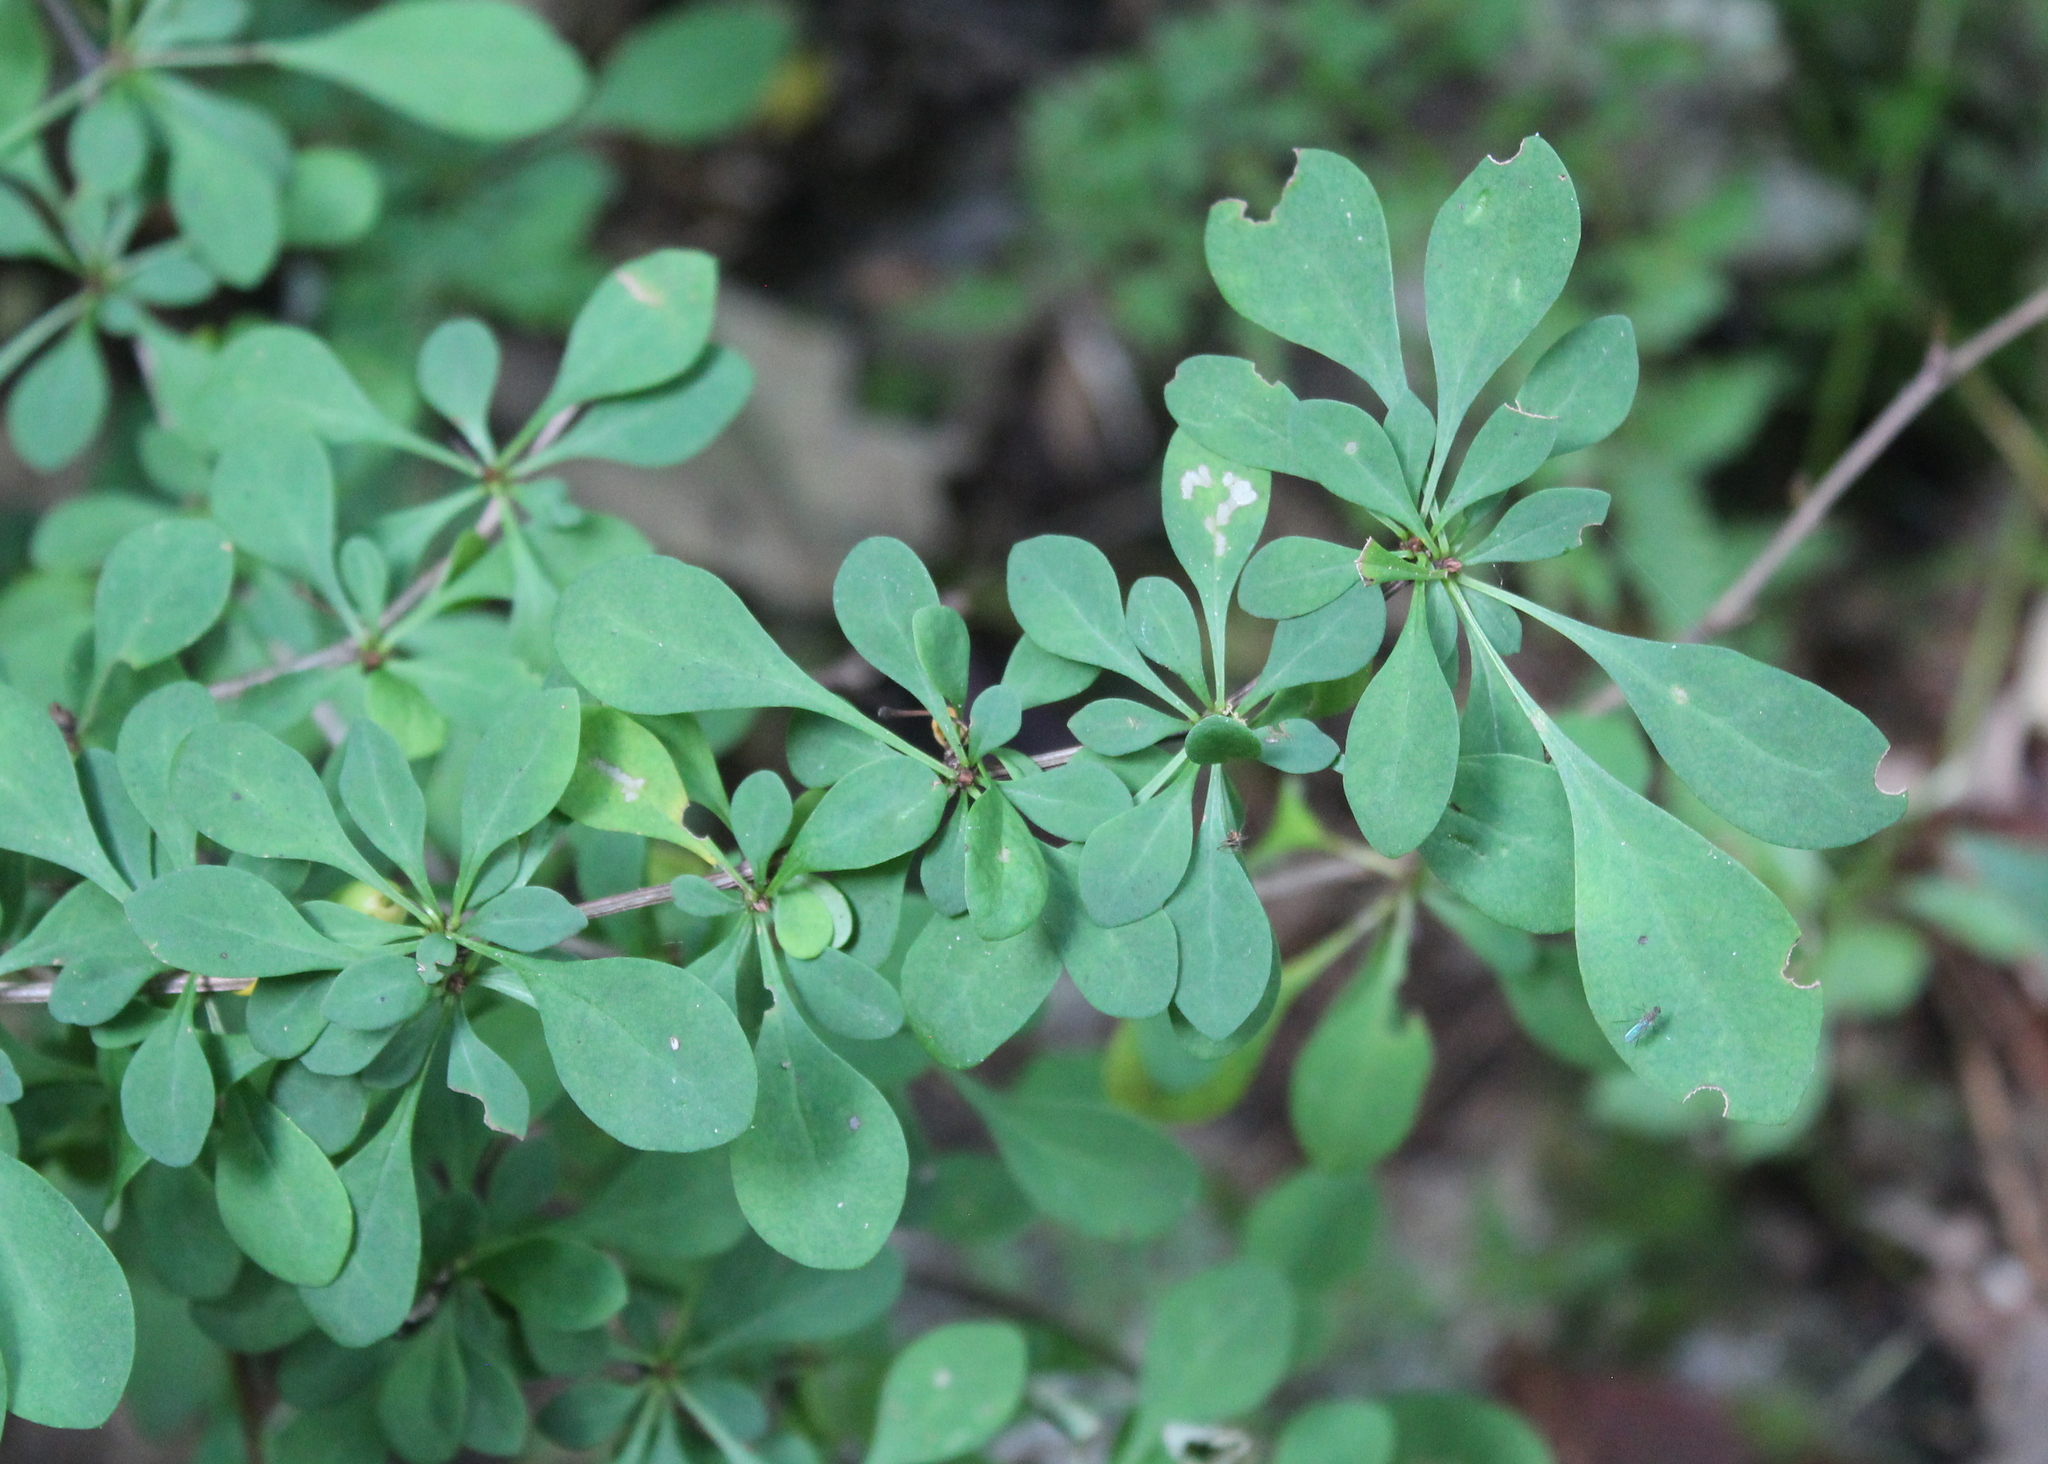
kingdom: Plantae
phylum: Tracheophyta
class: Magnoliopsida
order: Ranunculales
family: Berberidaceae
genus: Berberis
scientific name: Berberis thunbergii
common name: Japanese barberry
